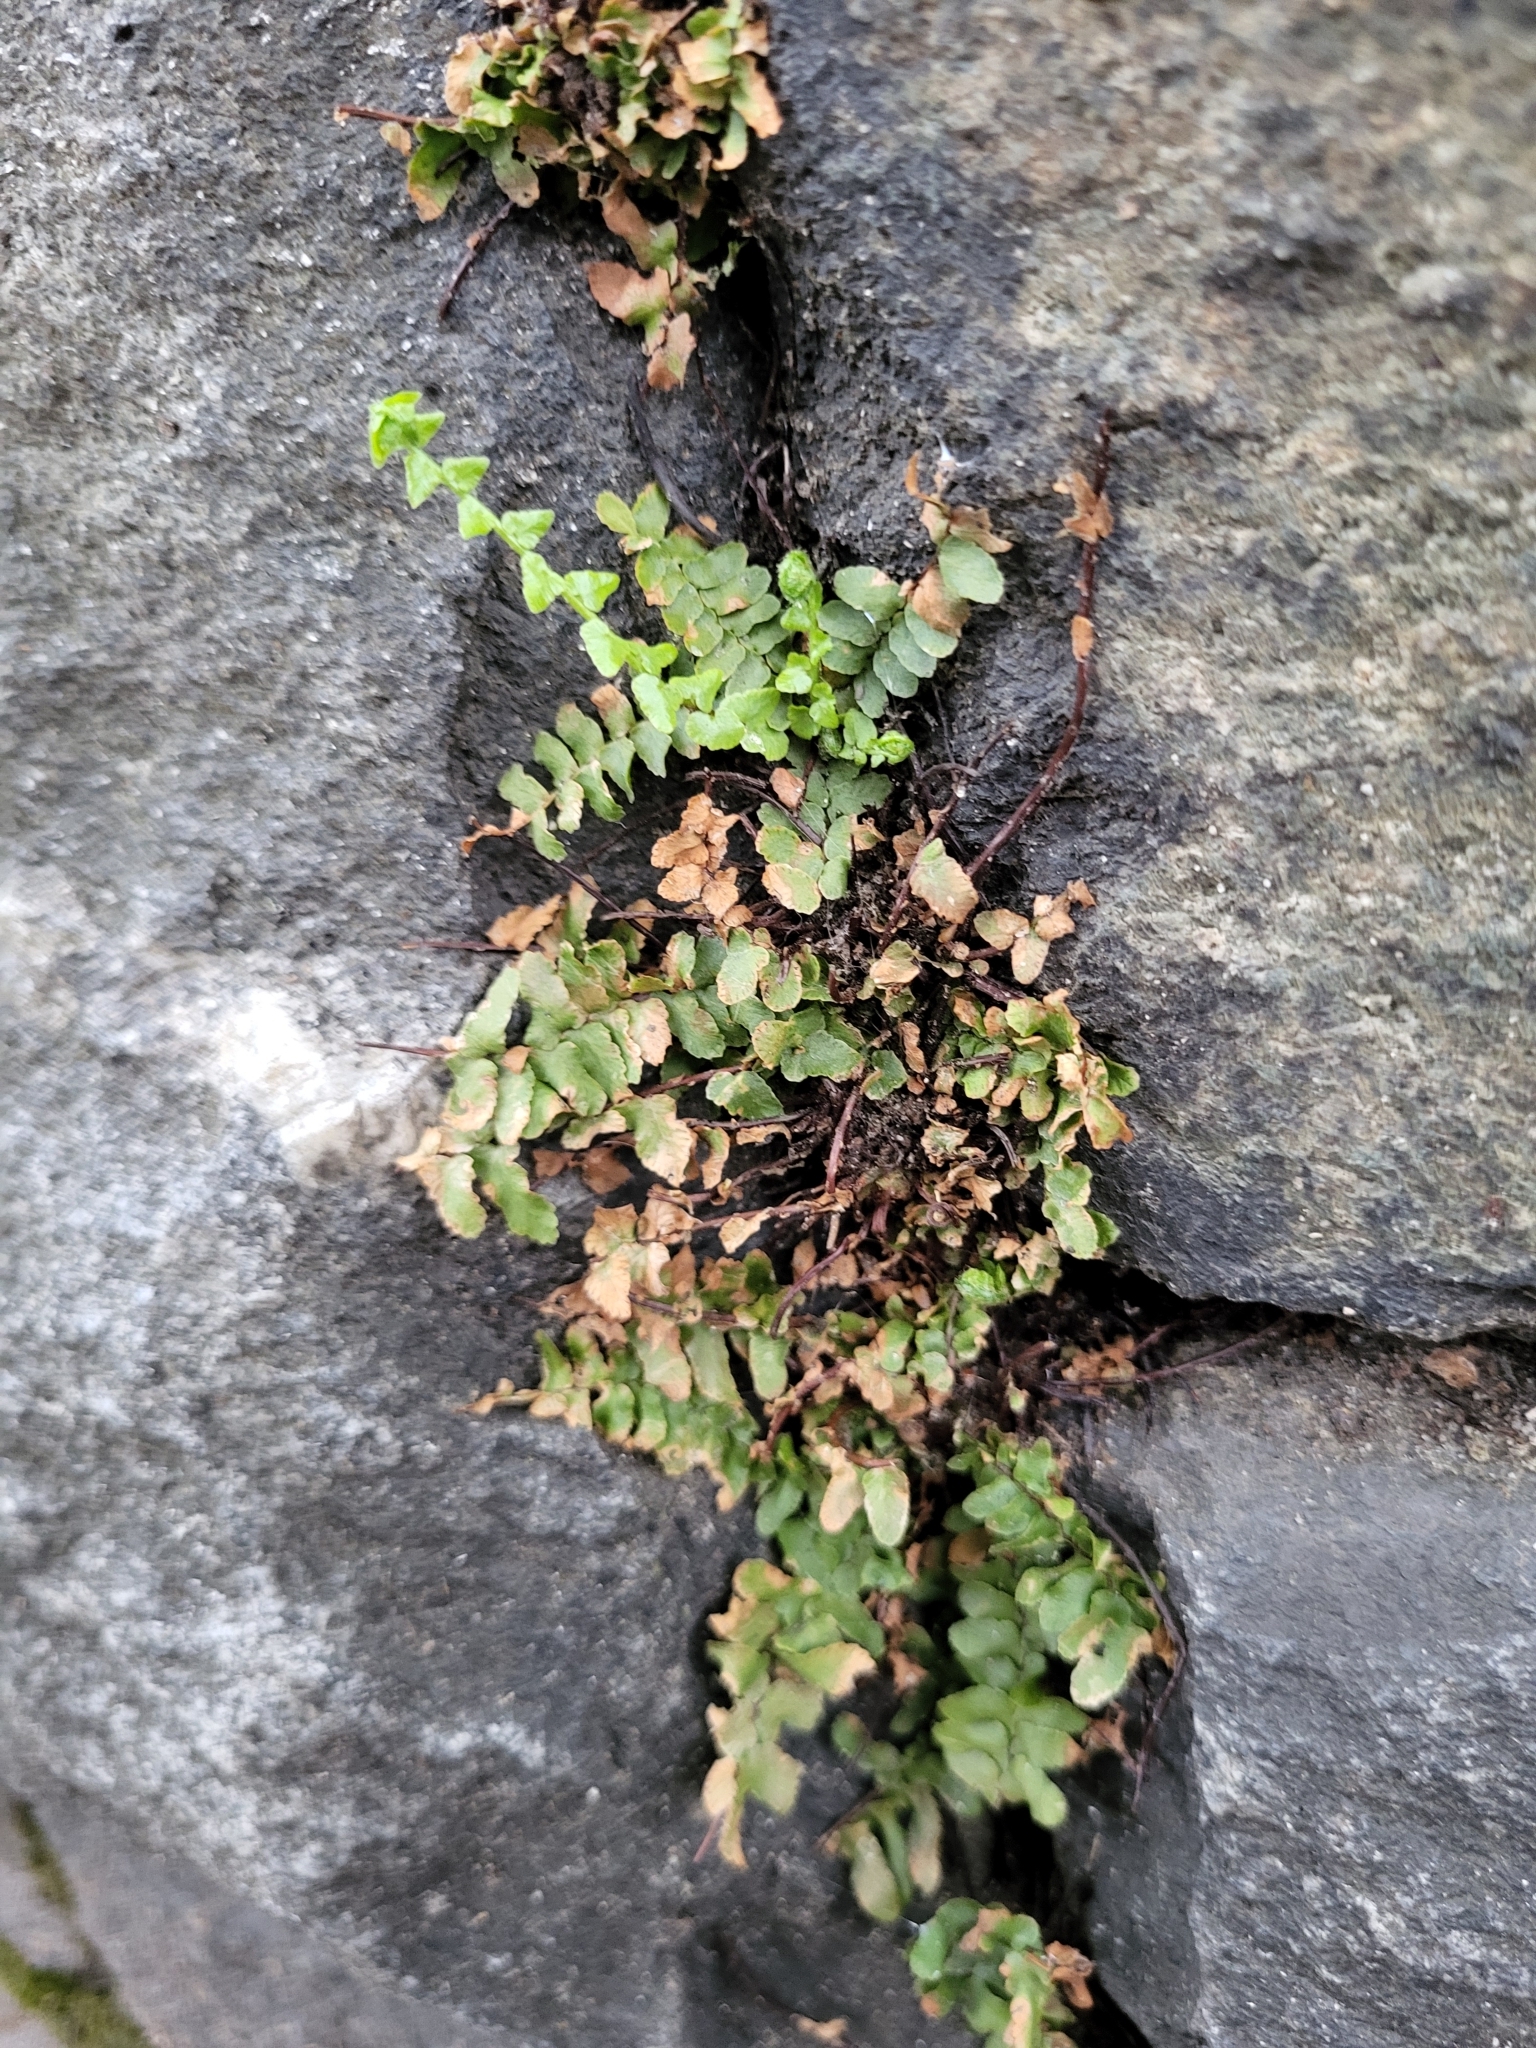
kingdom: Plantae
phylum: Tracheophyta
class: Polypodiopsida
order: Polypodiales
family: Aspleniaceae
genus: Asplenium
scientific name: Asplenium platyneuron
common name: Ebony spleenwort
